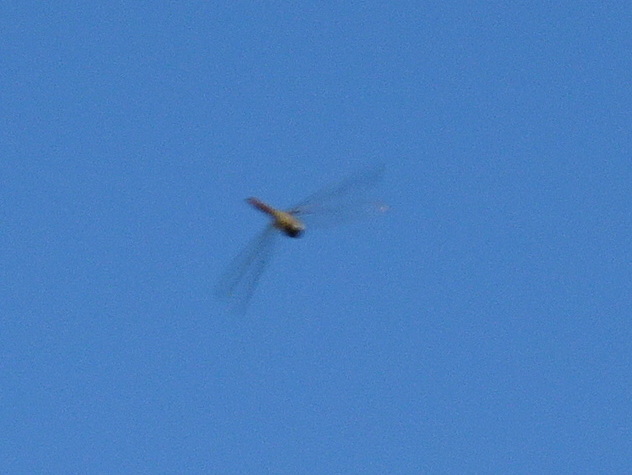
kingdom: Animalia
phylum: Arthropoda
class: Insecta
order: Odonata
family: Libellulidae
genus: Pantala
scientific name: Pantala flavescens
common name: Wandering glider
